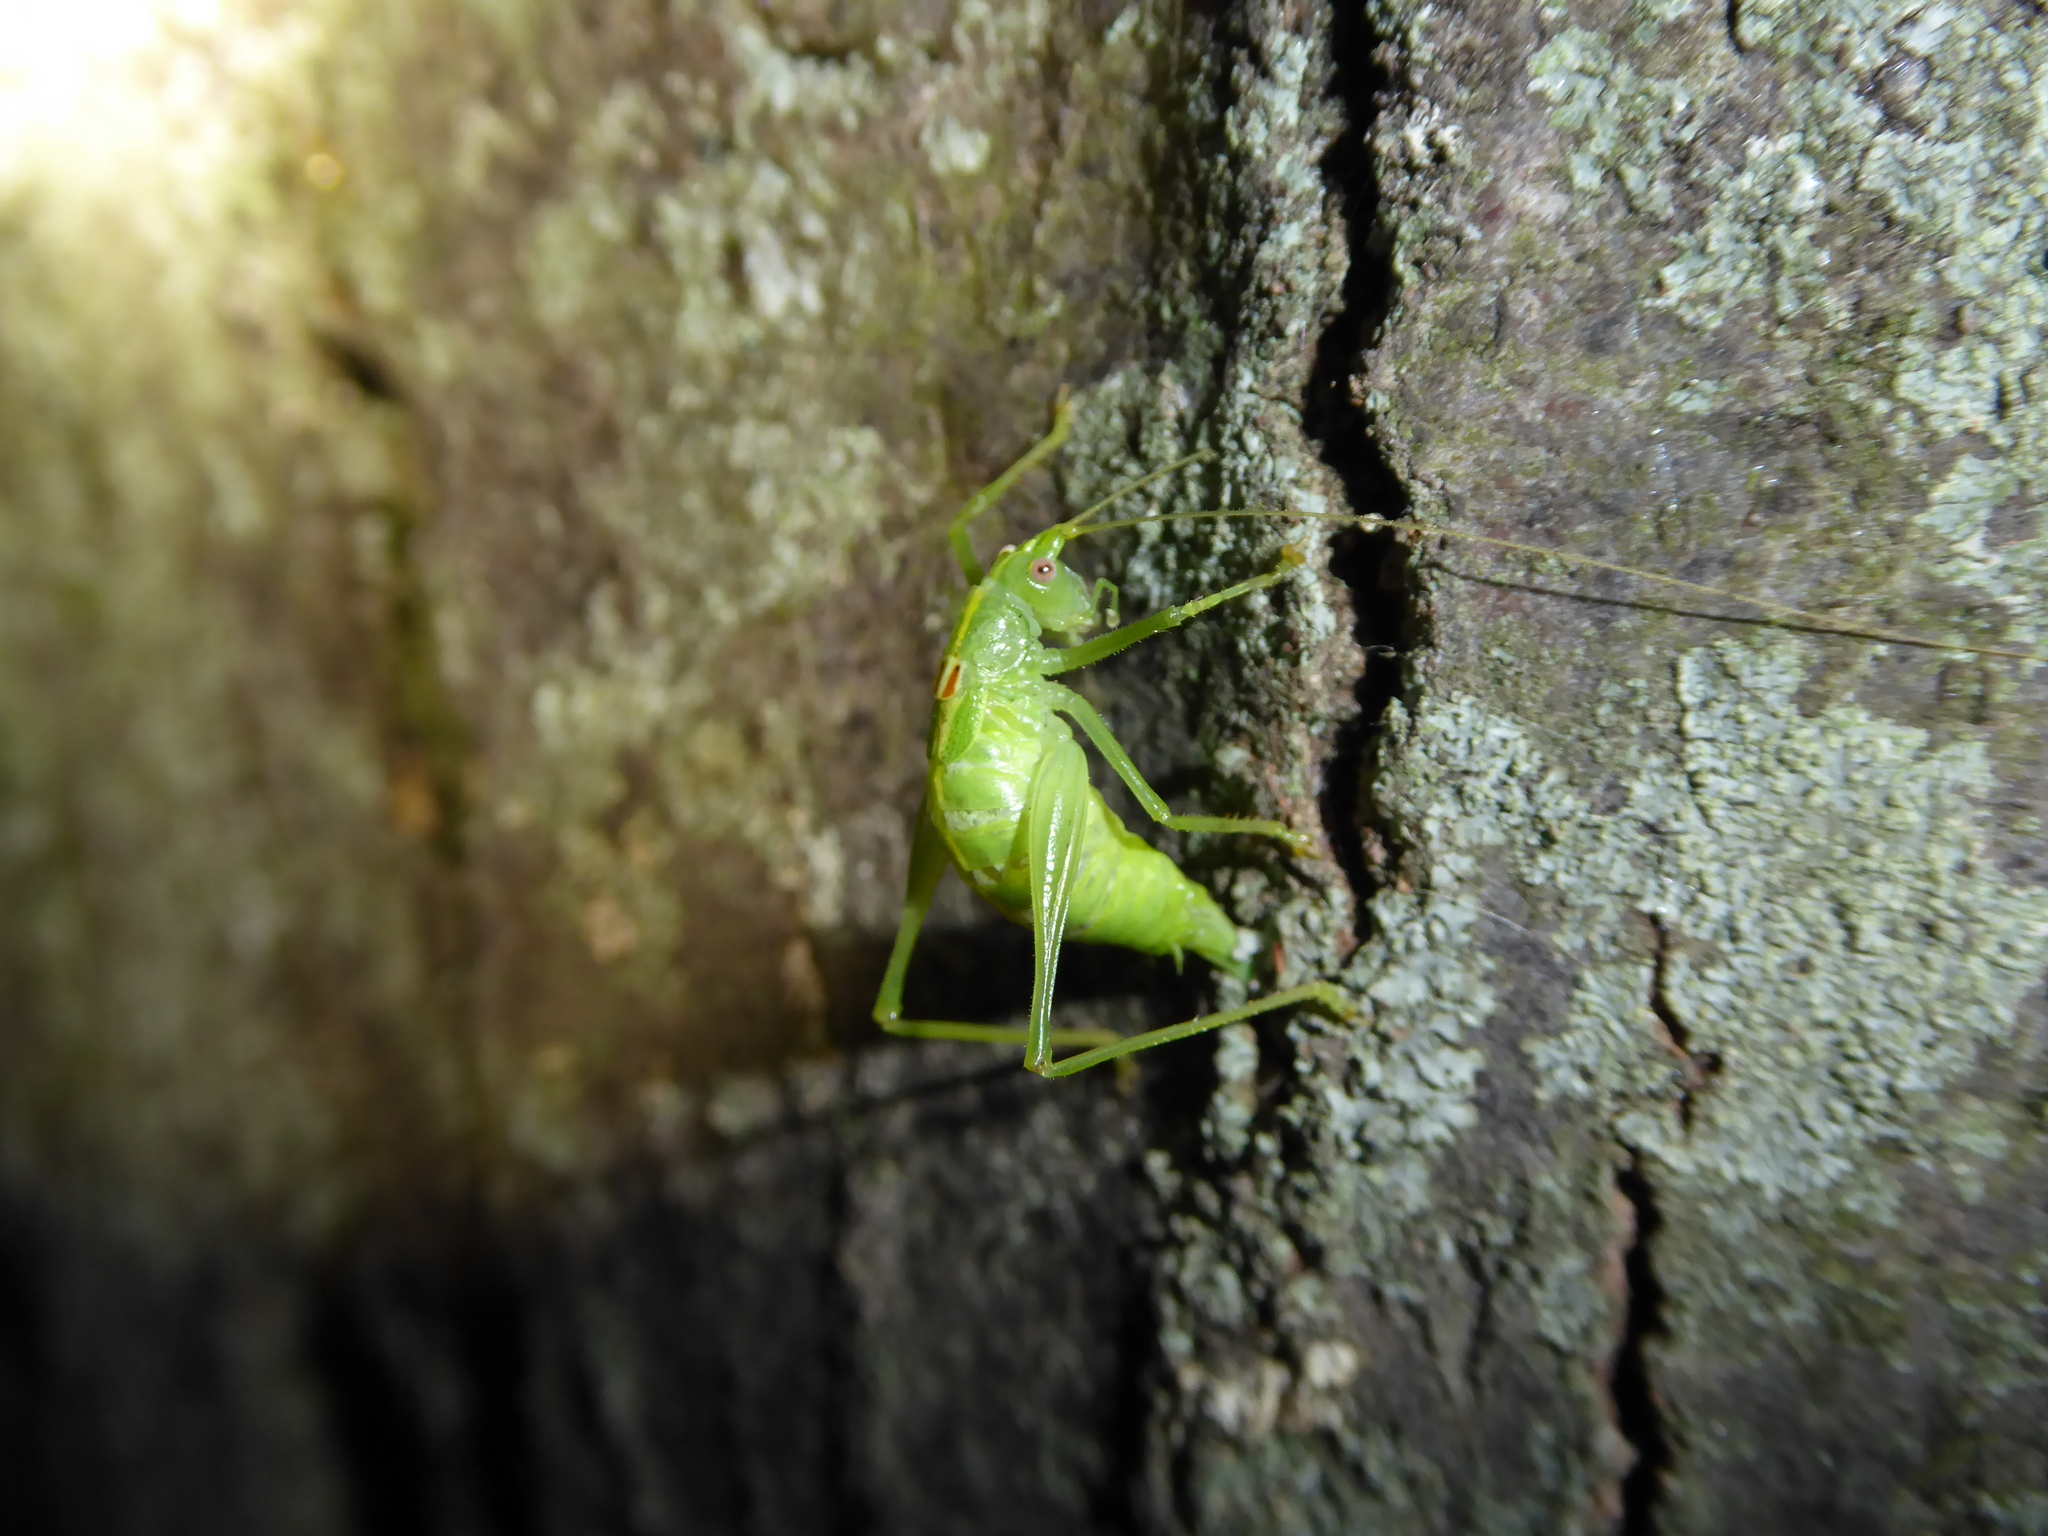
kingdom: Animalia
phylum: Arthropoda
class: Insecta
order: Orthoptera
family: Tettigoniidae
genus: Meconema
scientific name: Meconema meridionale
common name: Southern oak bush-cricket
